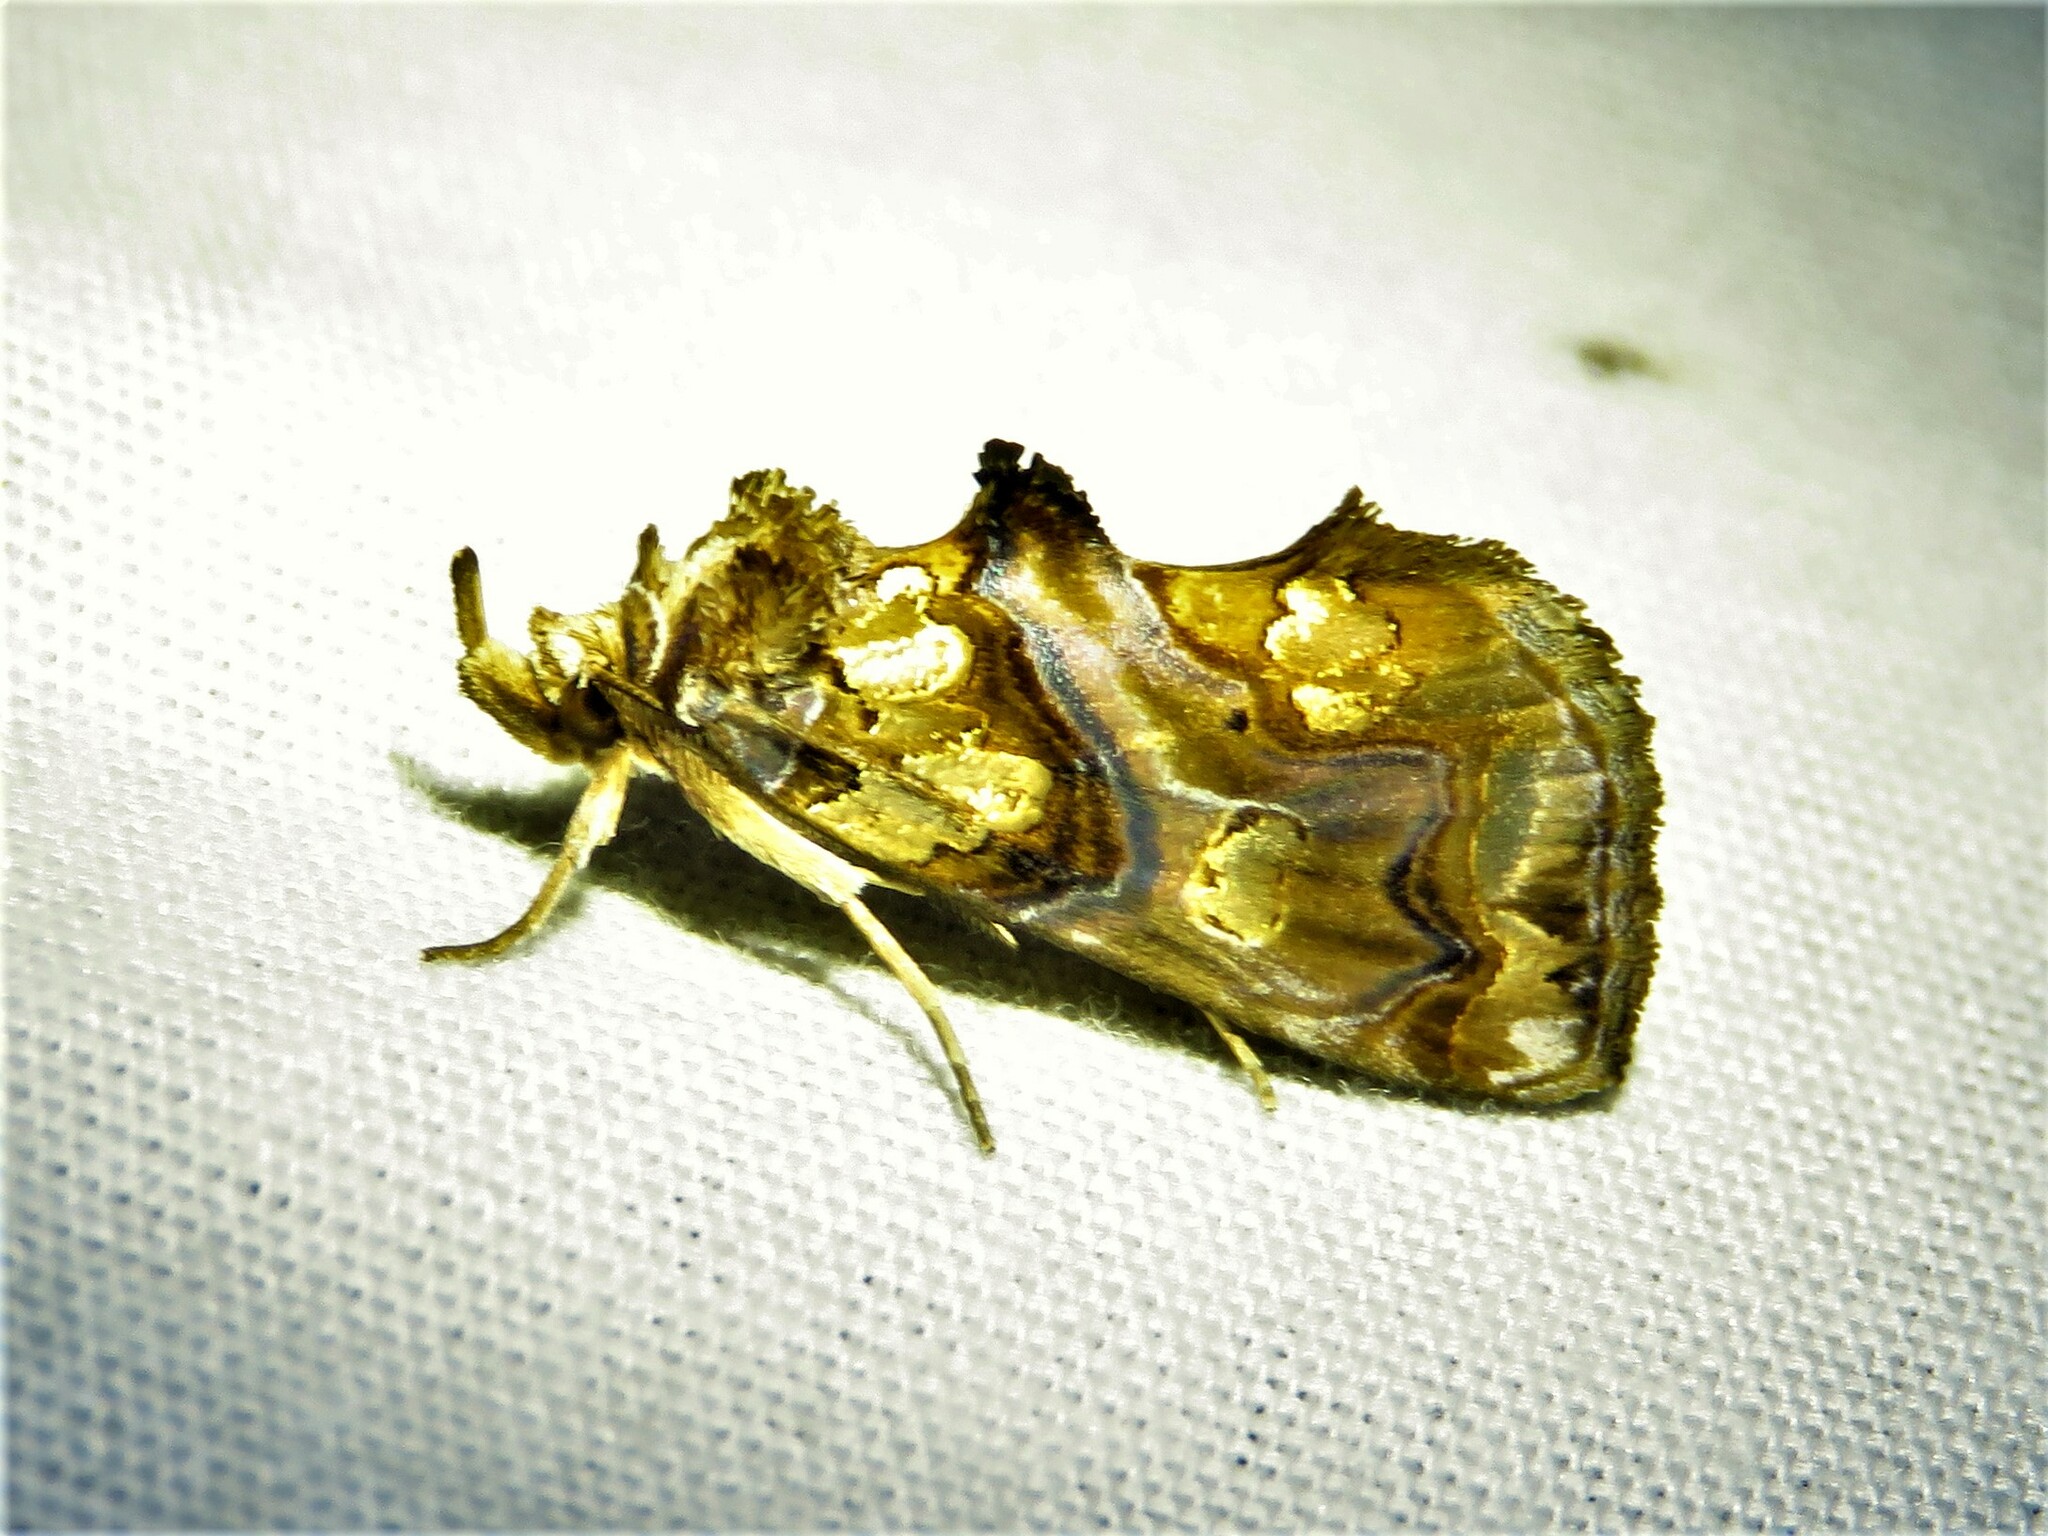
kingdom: Animalia
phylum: Arthropoda
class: Insecta
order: Lepidoptera
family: Erebidae
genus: Plusiodonta
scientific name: Plusiodonta compressipalpis
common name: Moonseed moth
